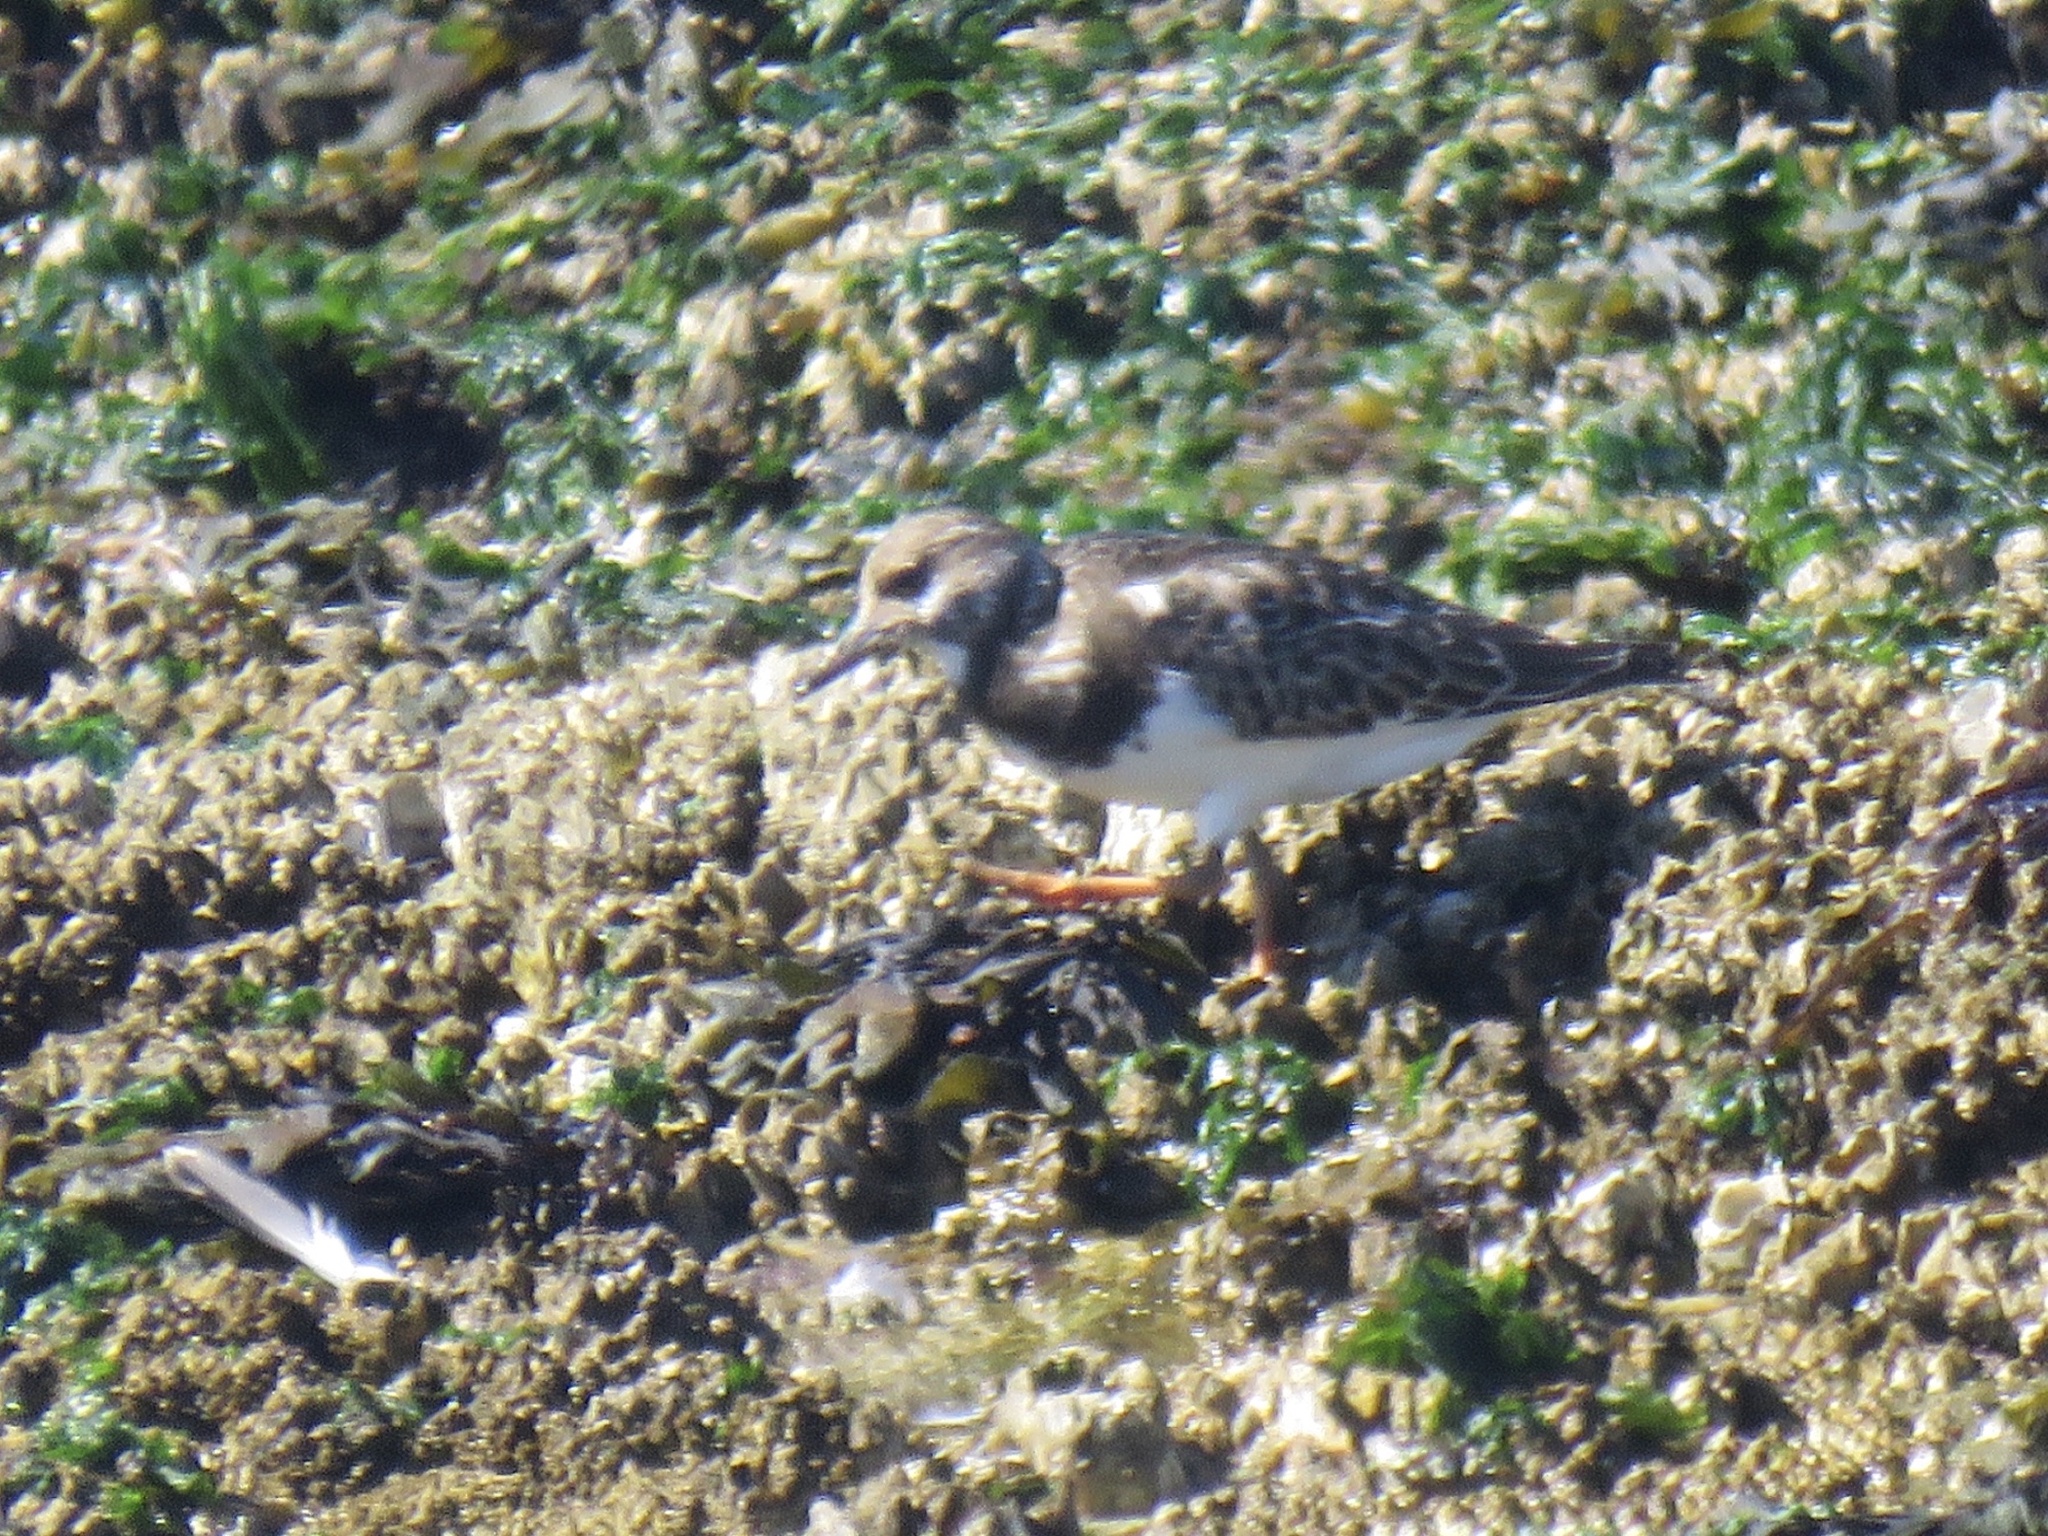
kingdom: Animalia
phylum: Chordata
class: Aves
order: Charadriiformes
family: Scolopacidae
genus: Arenaria
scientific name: Arenaria interpres
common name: Ruddy turnstone
